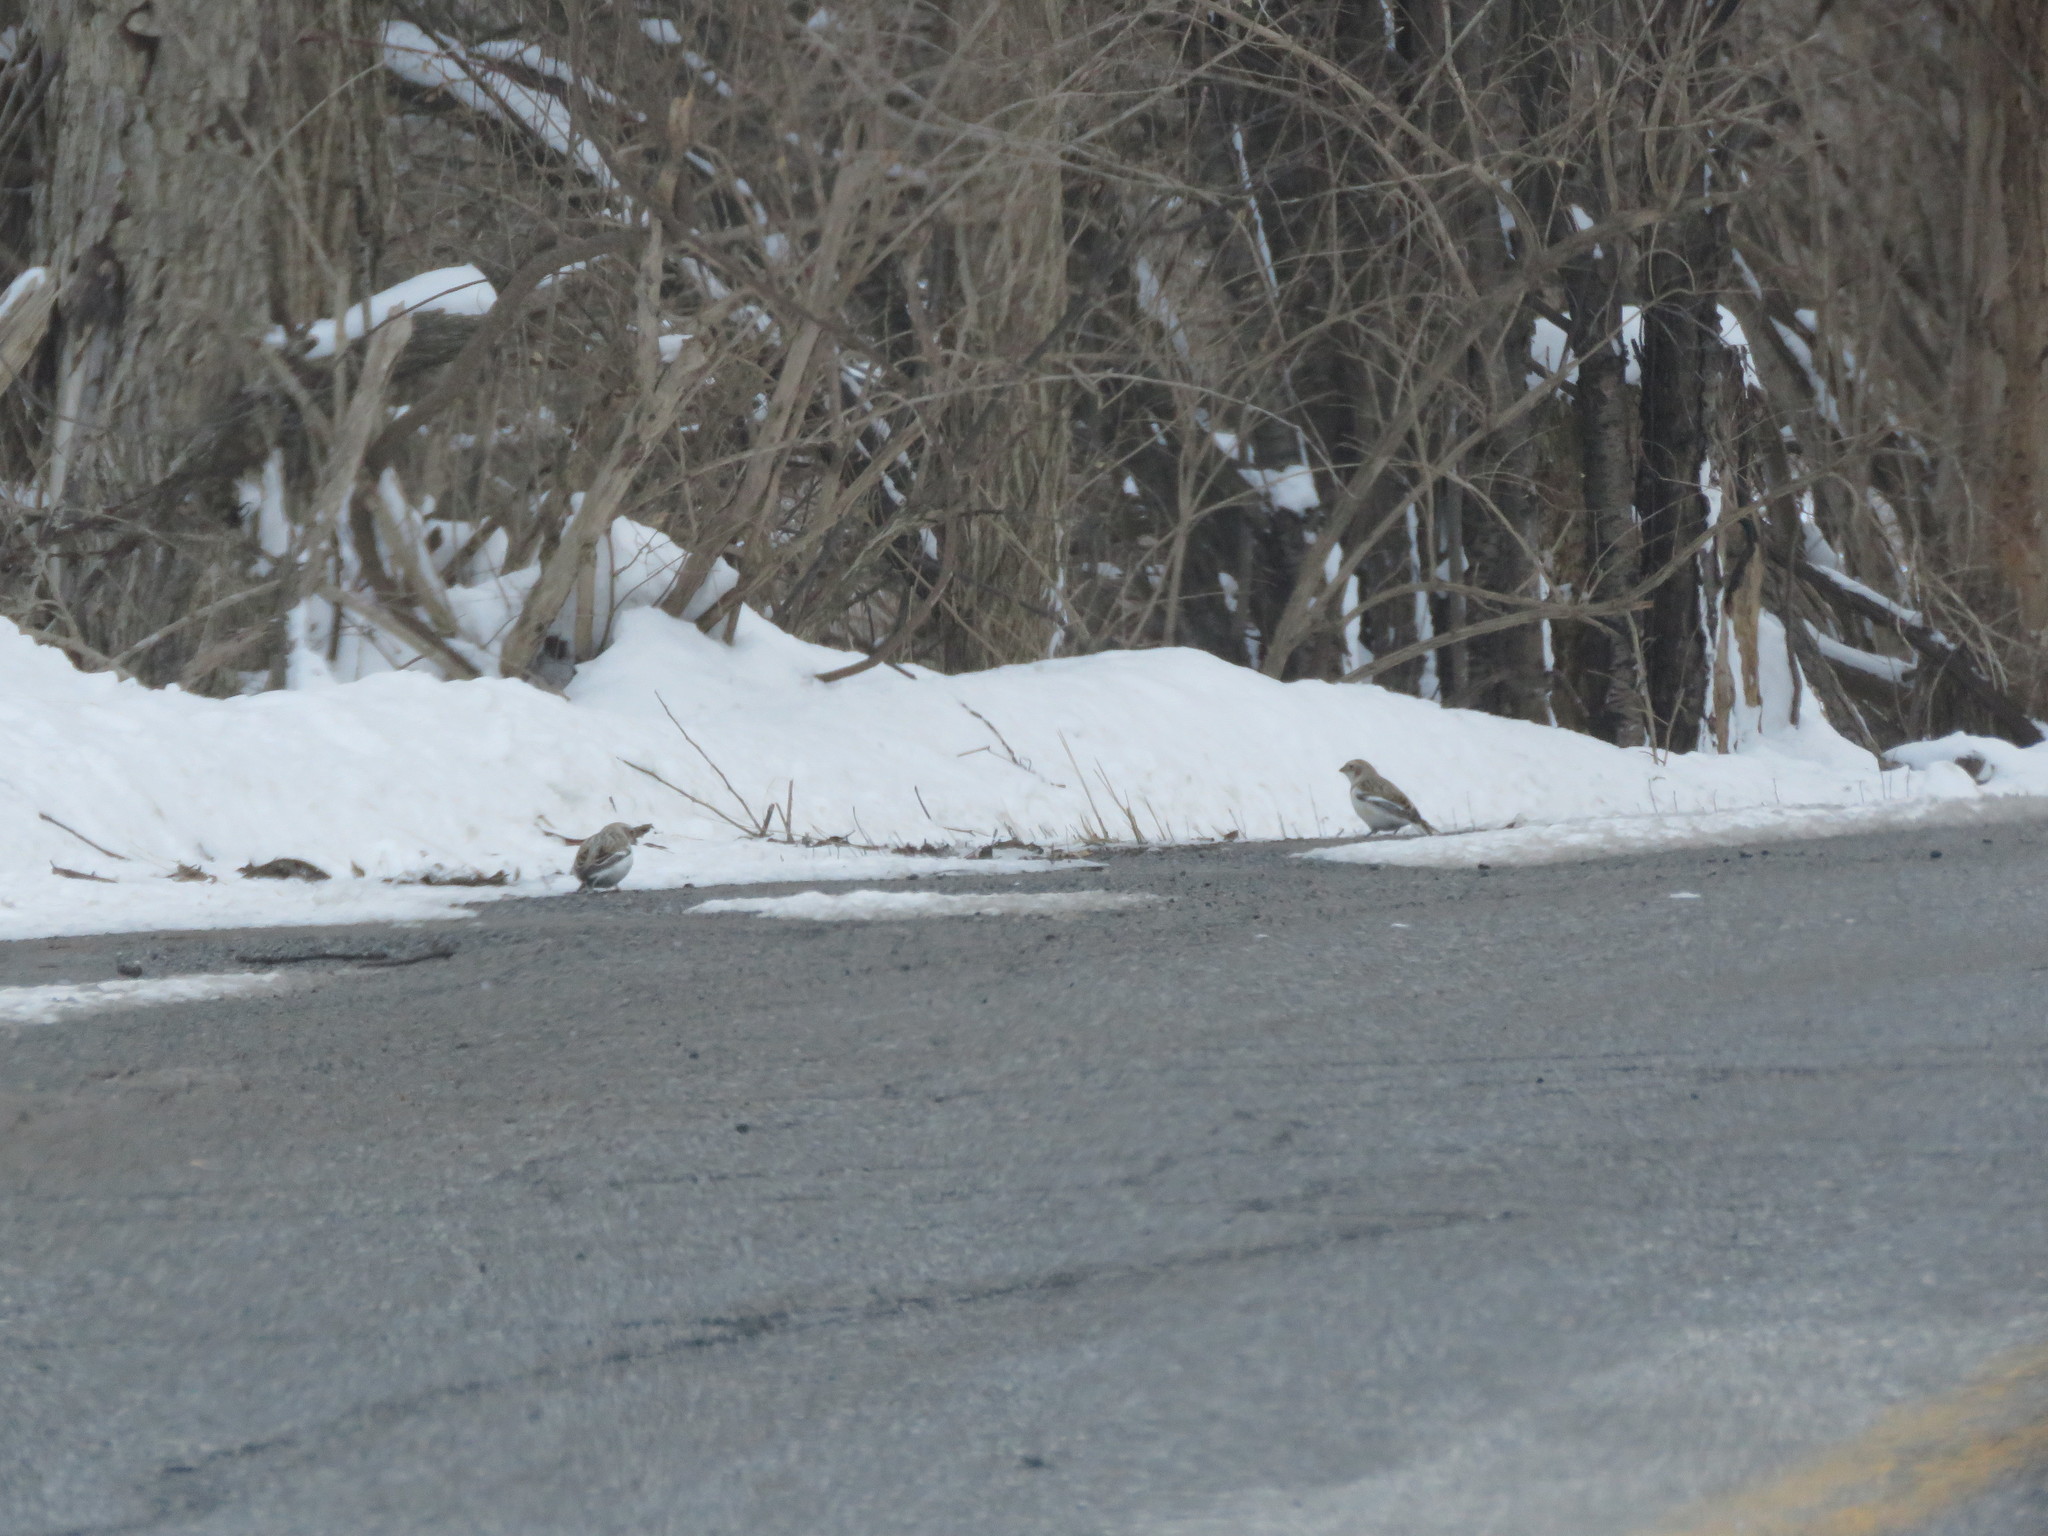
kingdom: Animalia
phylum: Chordata
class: Aves
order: Passeriformes
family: Calcariidae
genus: Plectrophenax
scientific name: Plectrophenax nivalis
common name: Snow bunting
